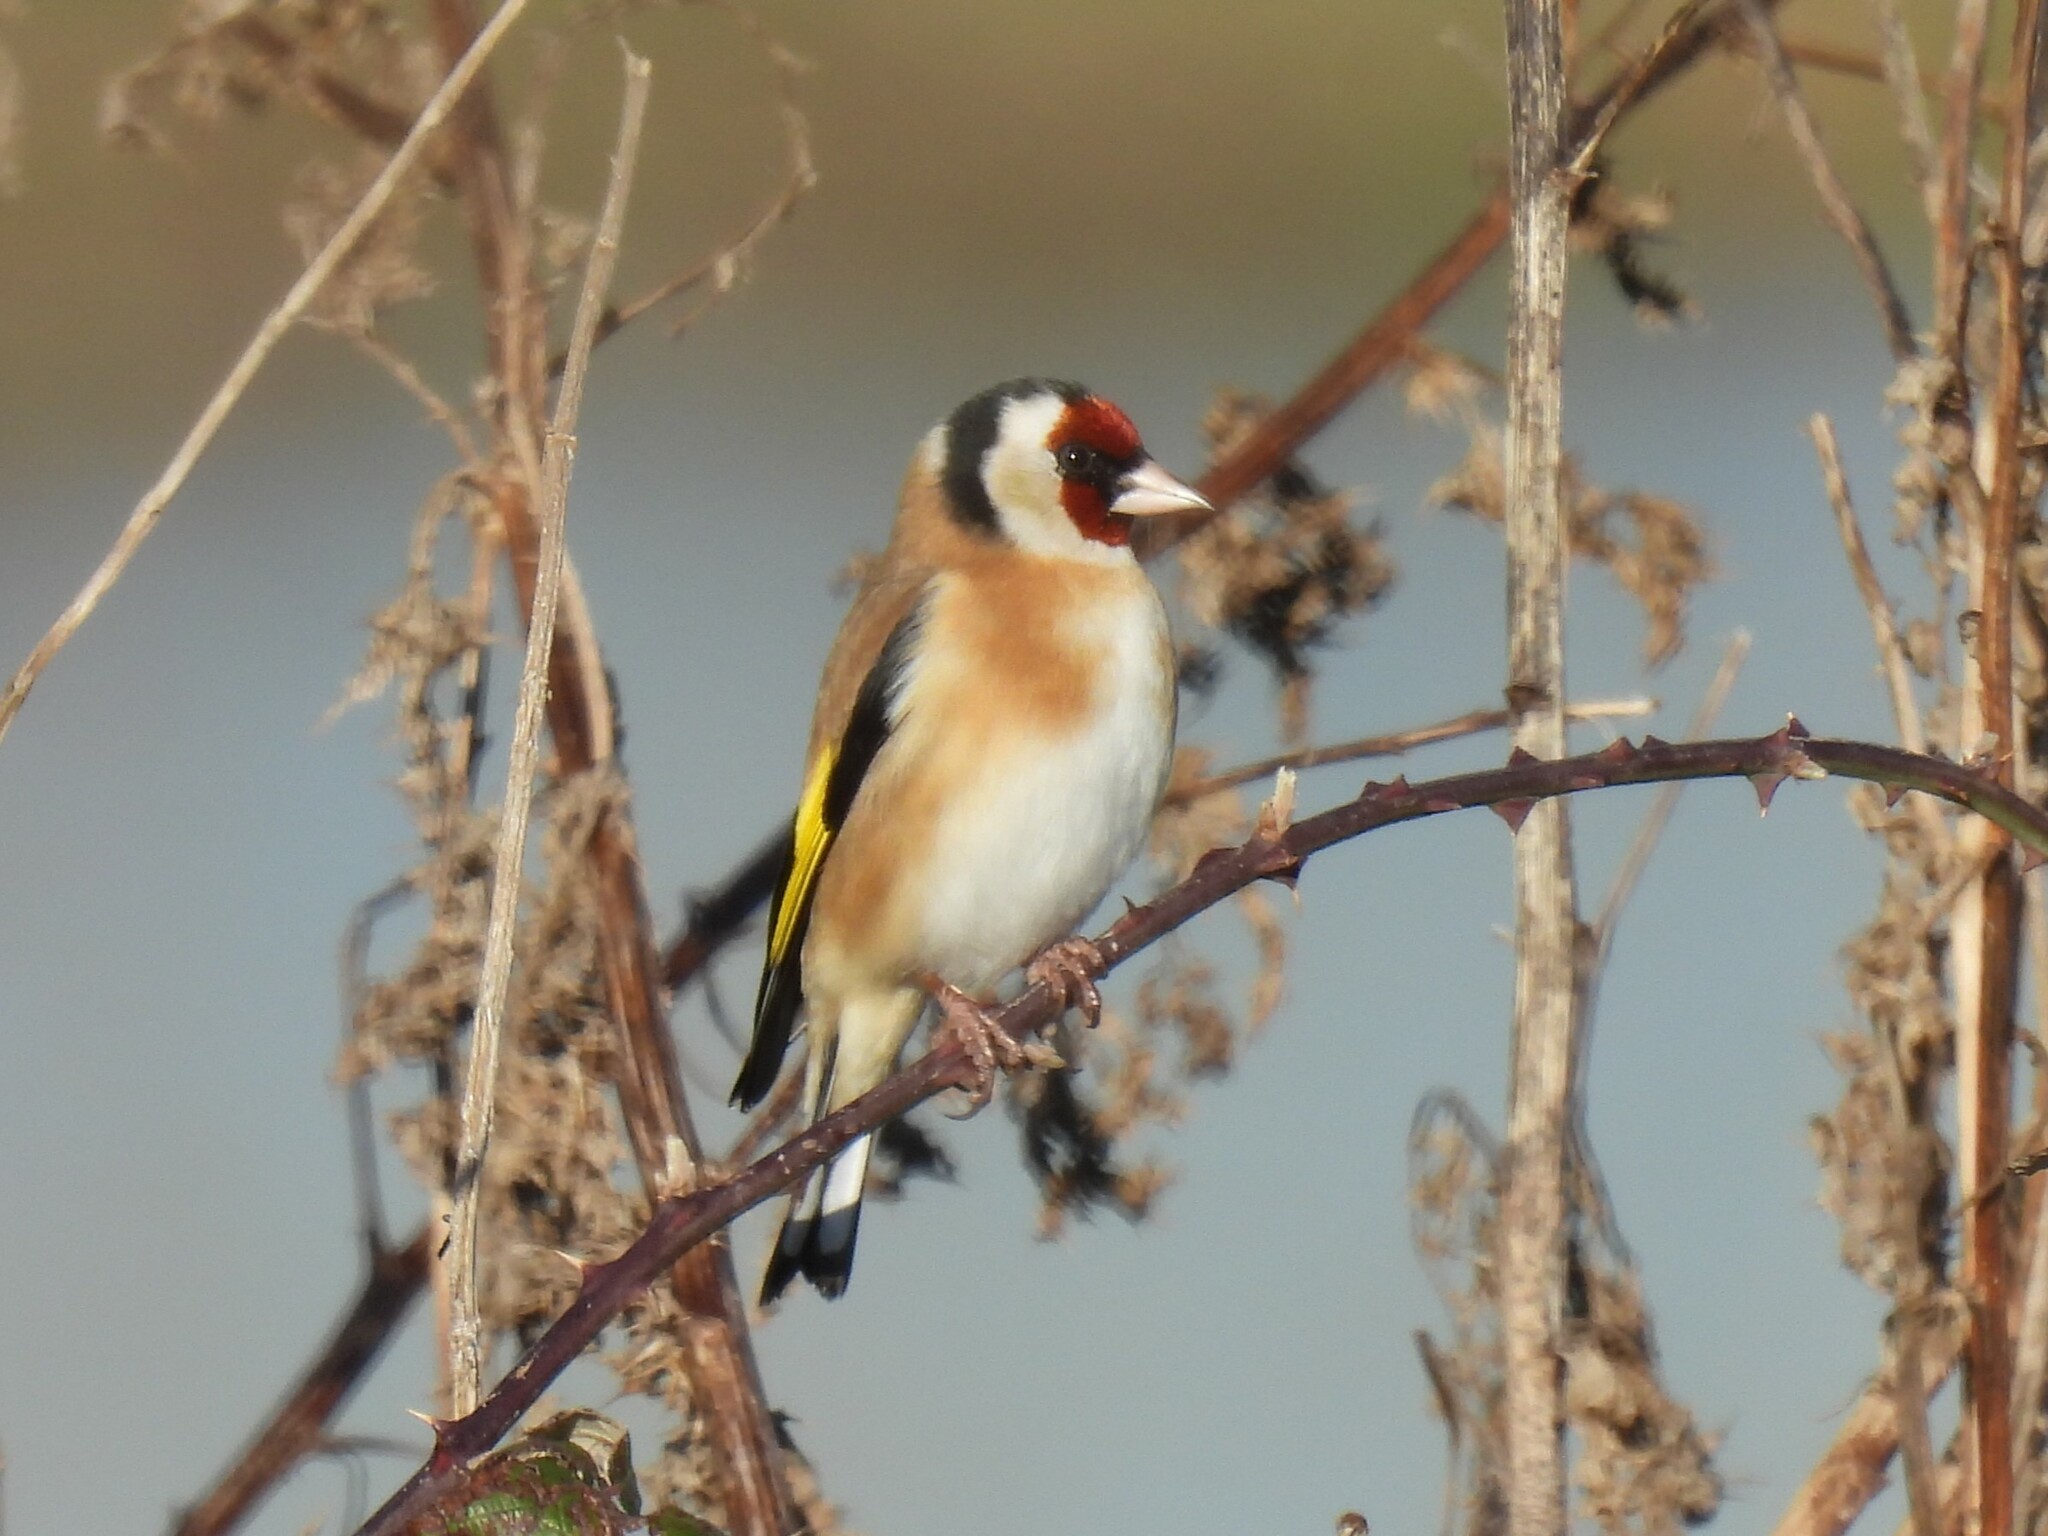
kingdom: Animalia
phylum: Chordata
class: Aves
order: Passeriformes
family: Fringillidae
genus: Carduelis
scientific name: Carduelis carduelis
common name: European goldfinch
